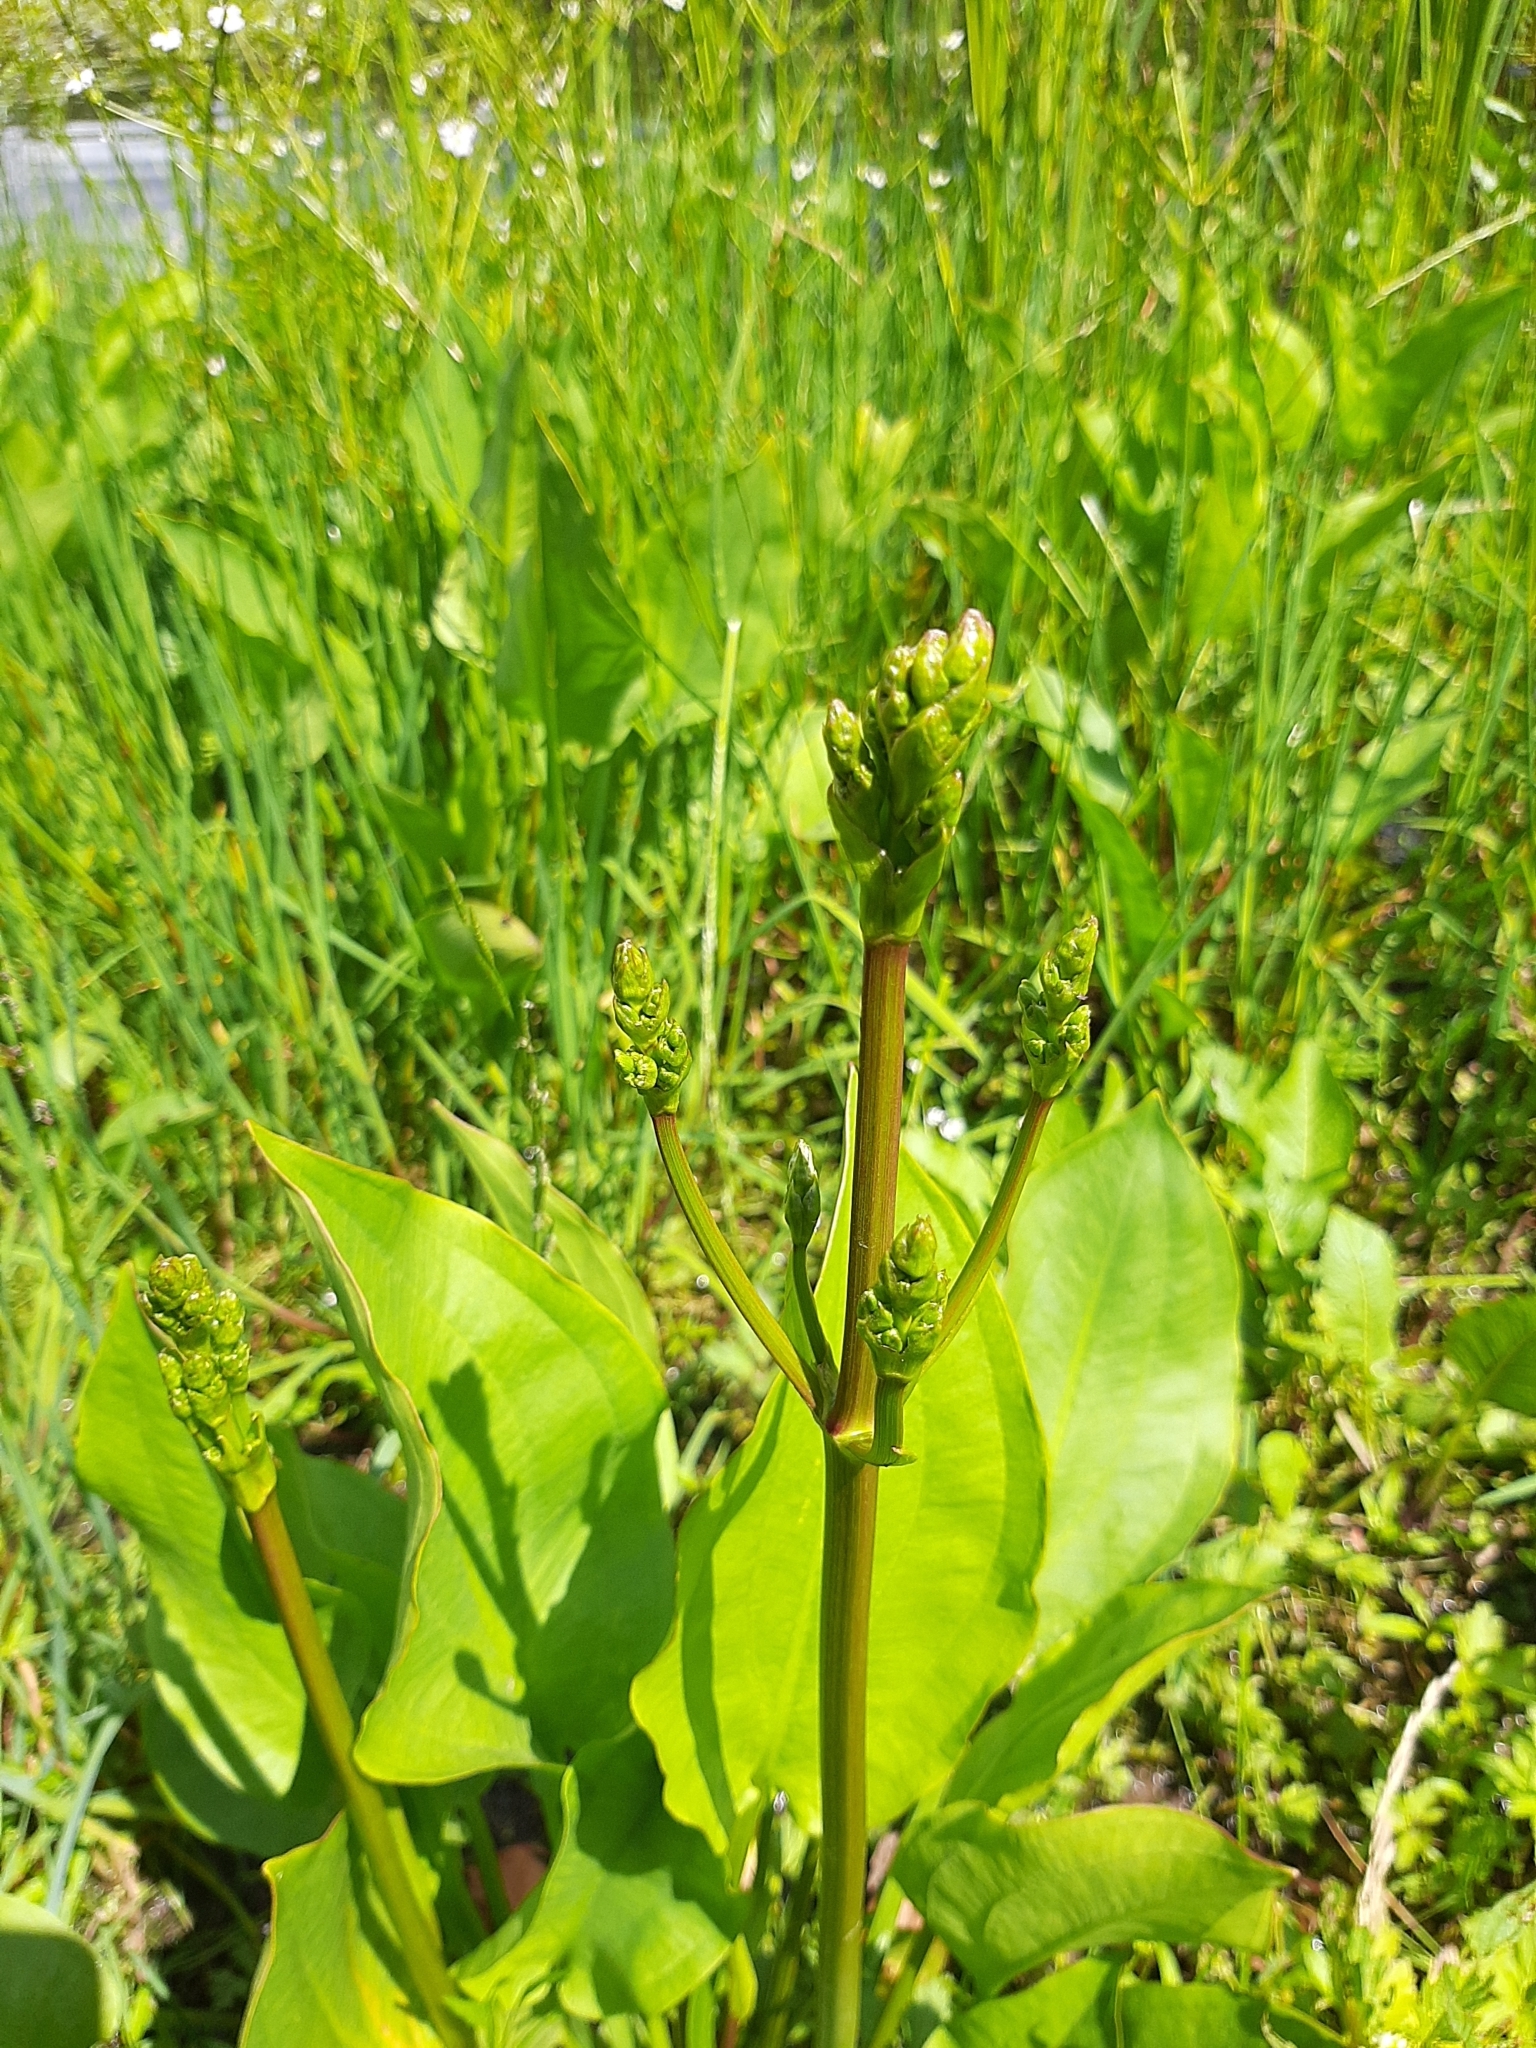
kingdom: Plantae
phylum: Tracheophyta
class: Liliopsida
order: Alismatales
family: Alismataceae
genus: Alisma
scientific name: Alisma plantago-aquatica
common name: Water-plantain
